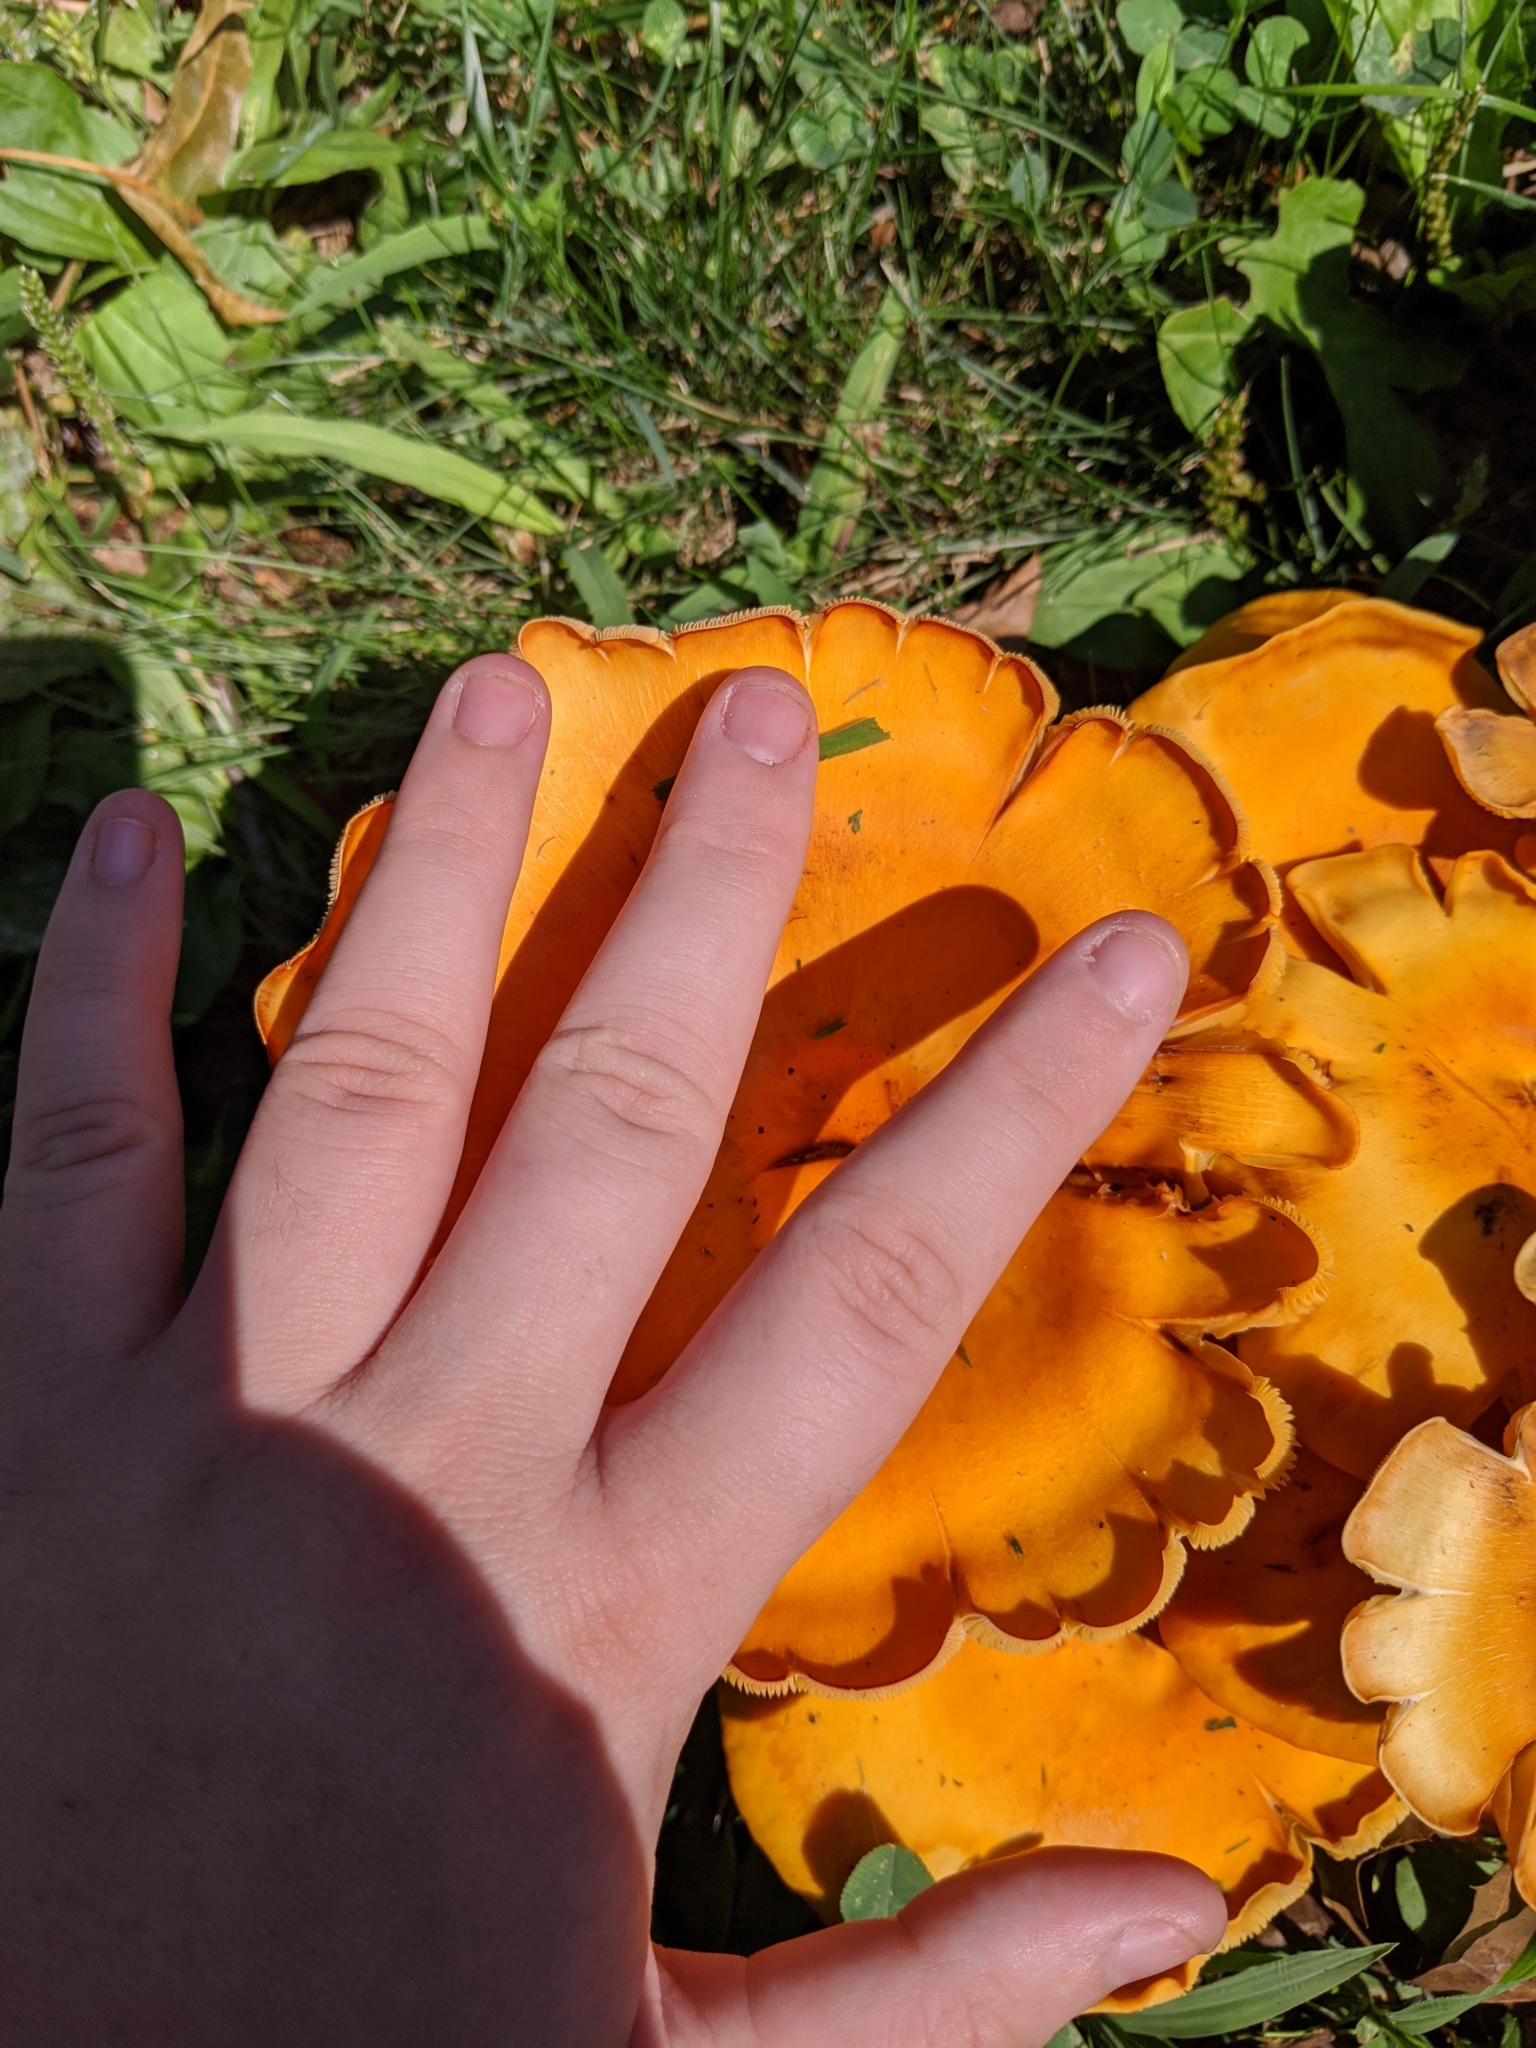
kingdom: Fungi
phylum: Basidiomycota
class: Agaricomycetes
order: Agaricales
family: Omphalotaceae
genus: Omphalotus
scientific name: Omphalotus illudens
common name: Jack o lantern
